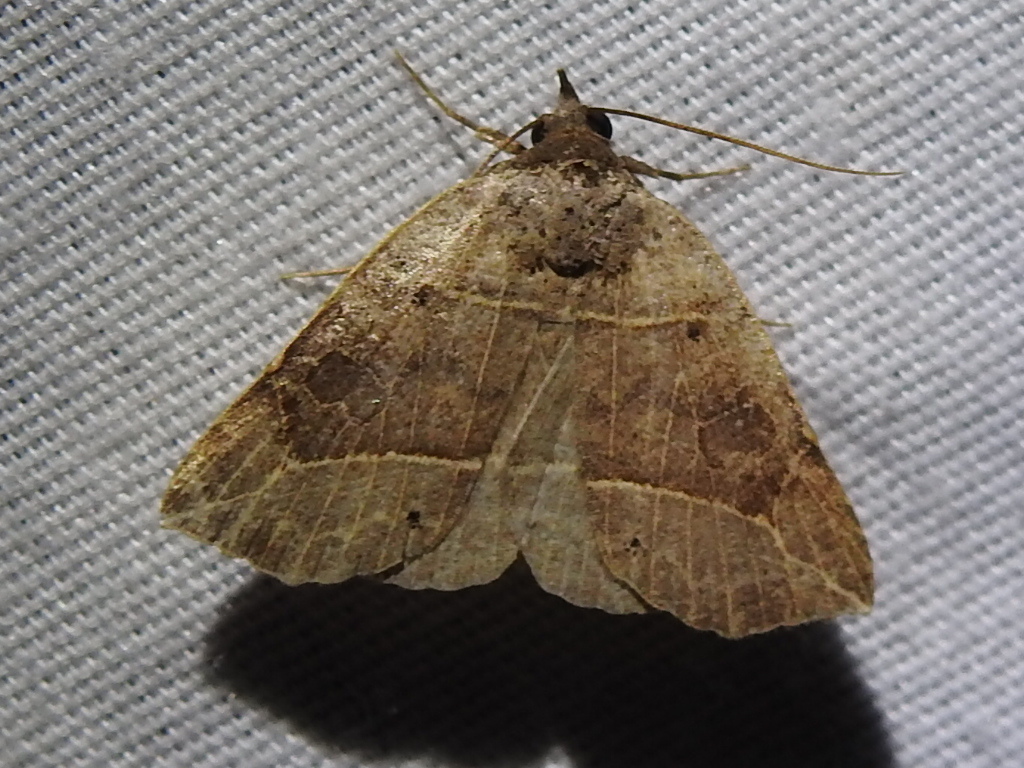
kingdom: Animalia
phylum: Arthropoda
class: Insecta
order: Lepidoptera
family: Erebidae
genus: Isogona
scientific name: Isogona tenuis
